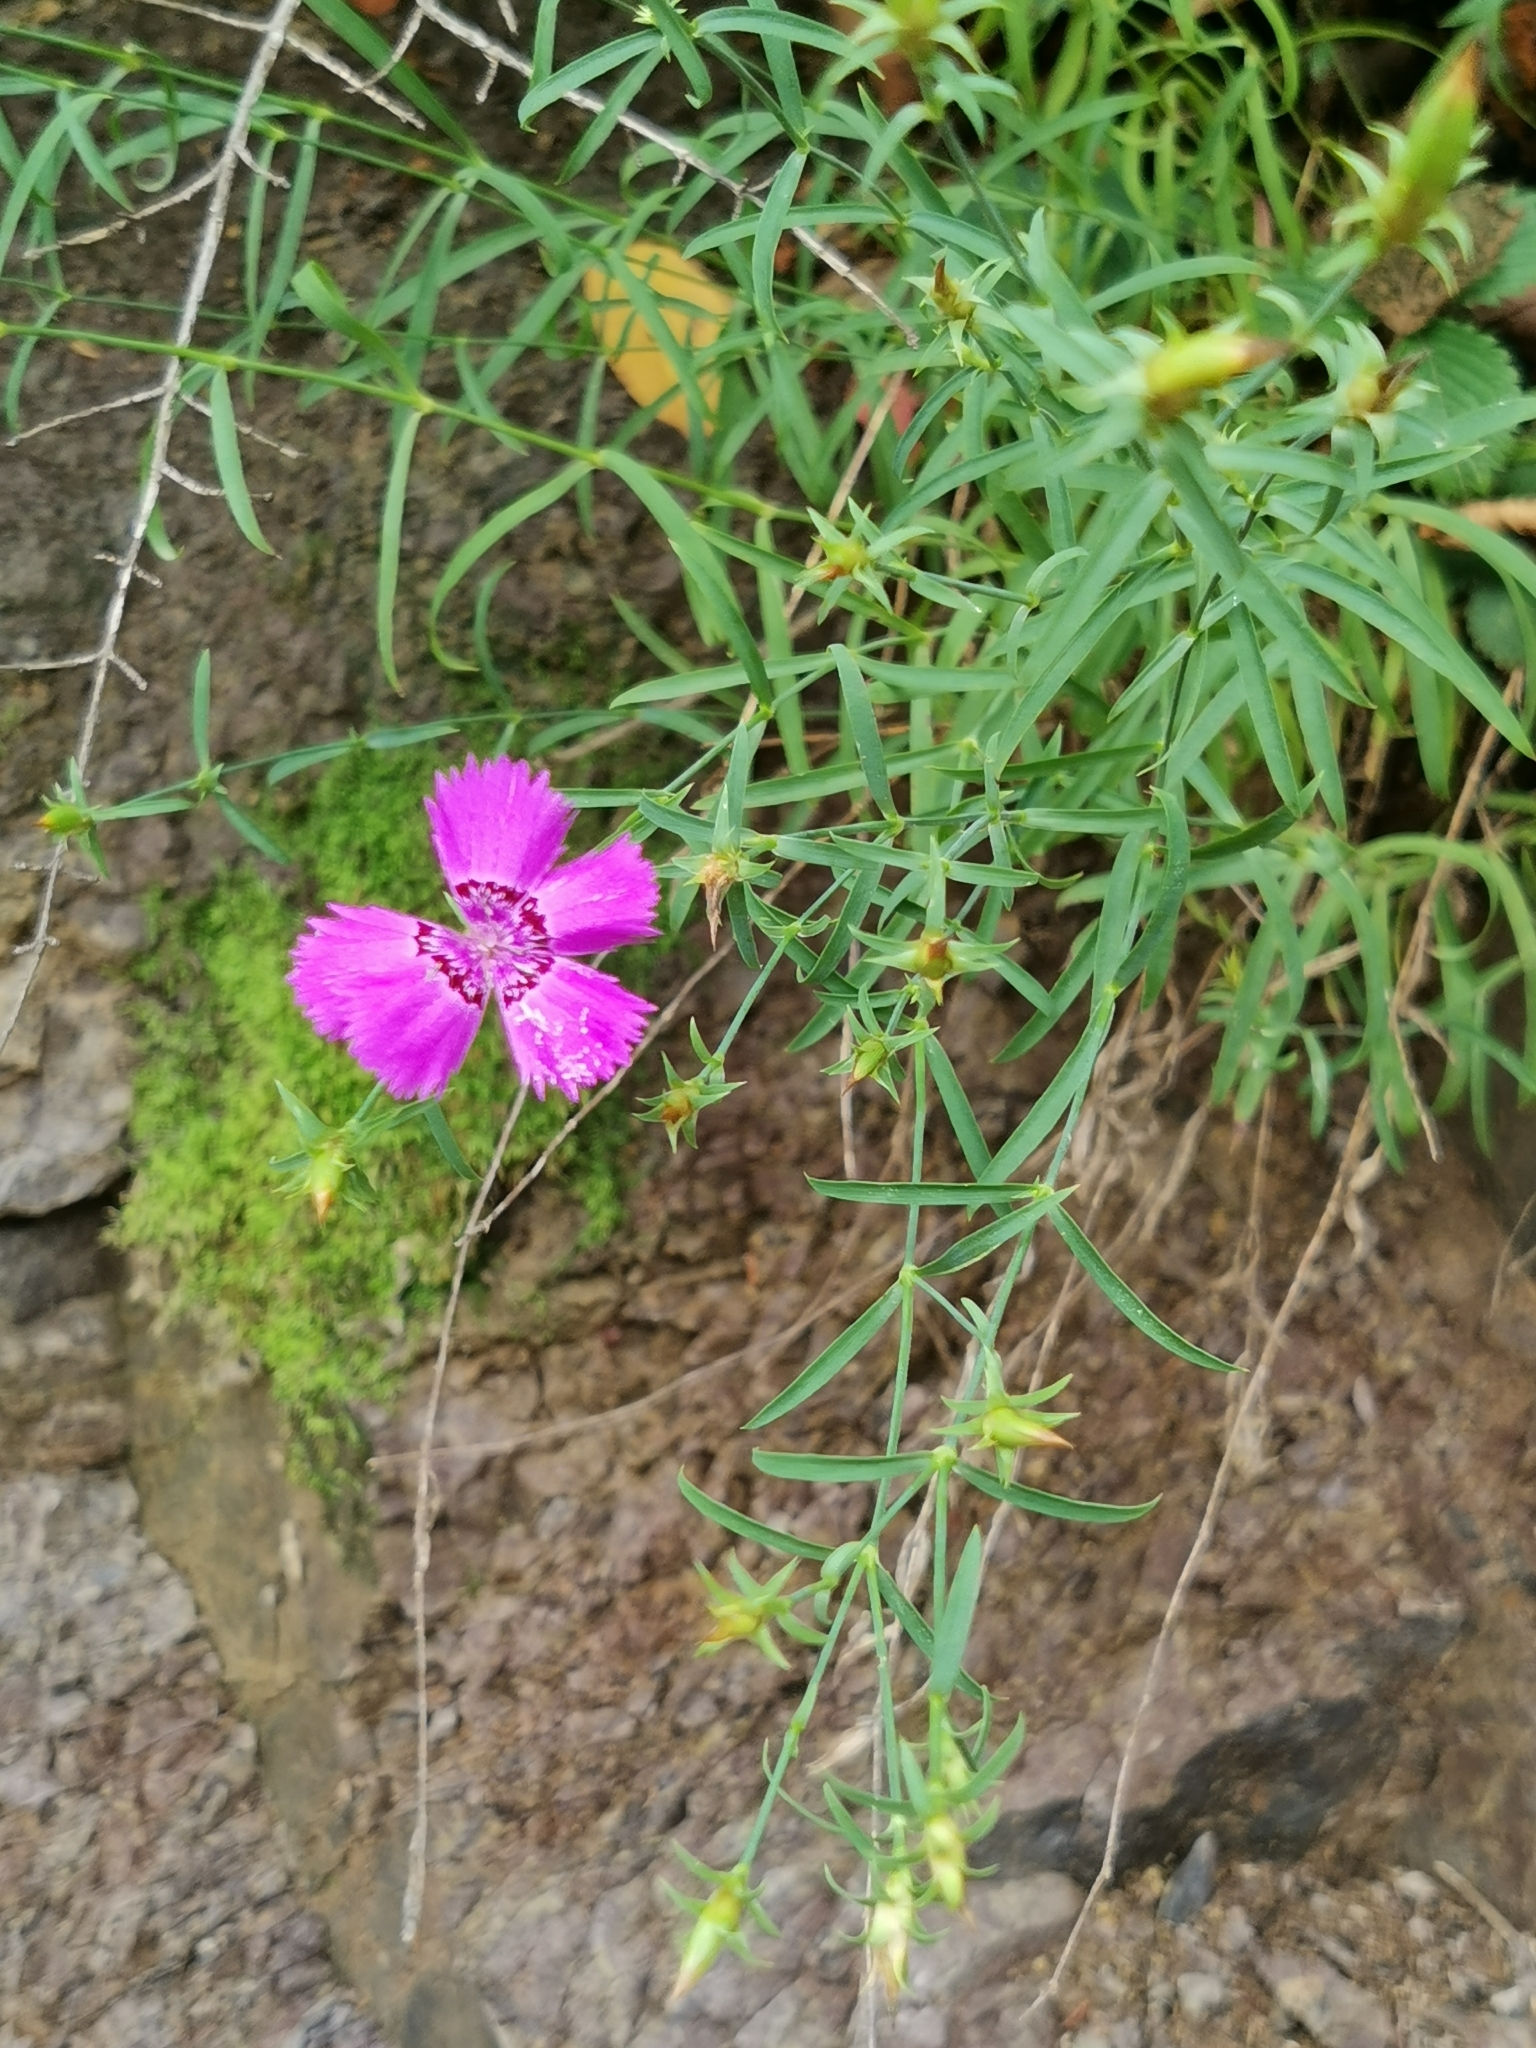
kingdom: Plantae
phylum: Tracheophyta
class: Magnoliopsida
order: Caryophyllales
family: Caryophyllaceae
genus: Dianthus
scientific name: Dianthus chinensis
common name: Rainbow pink
